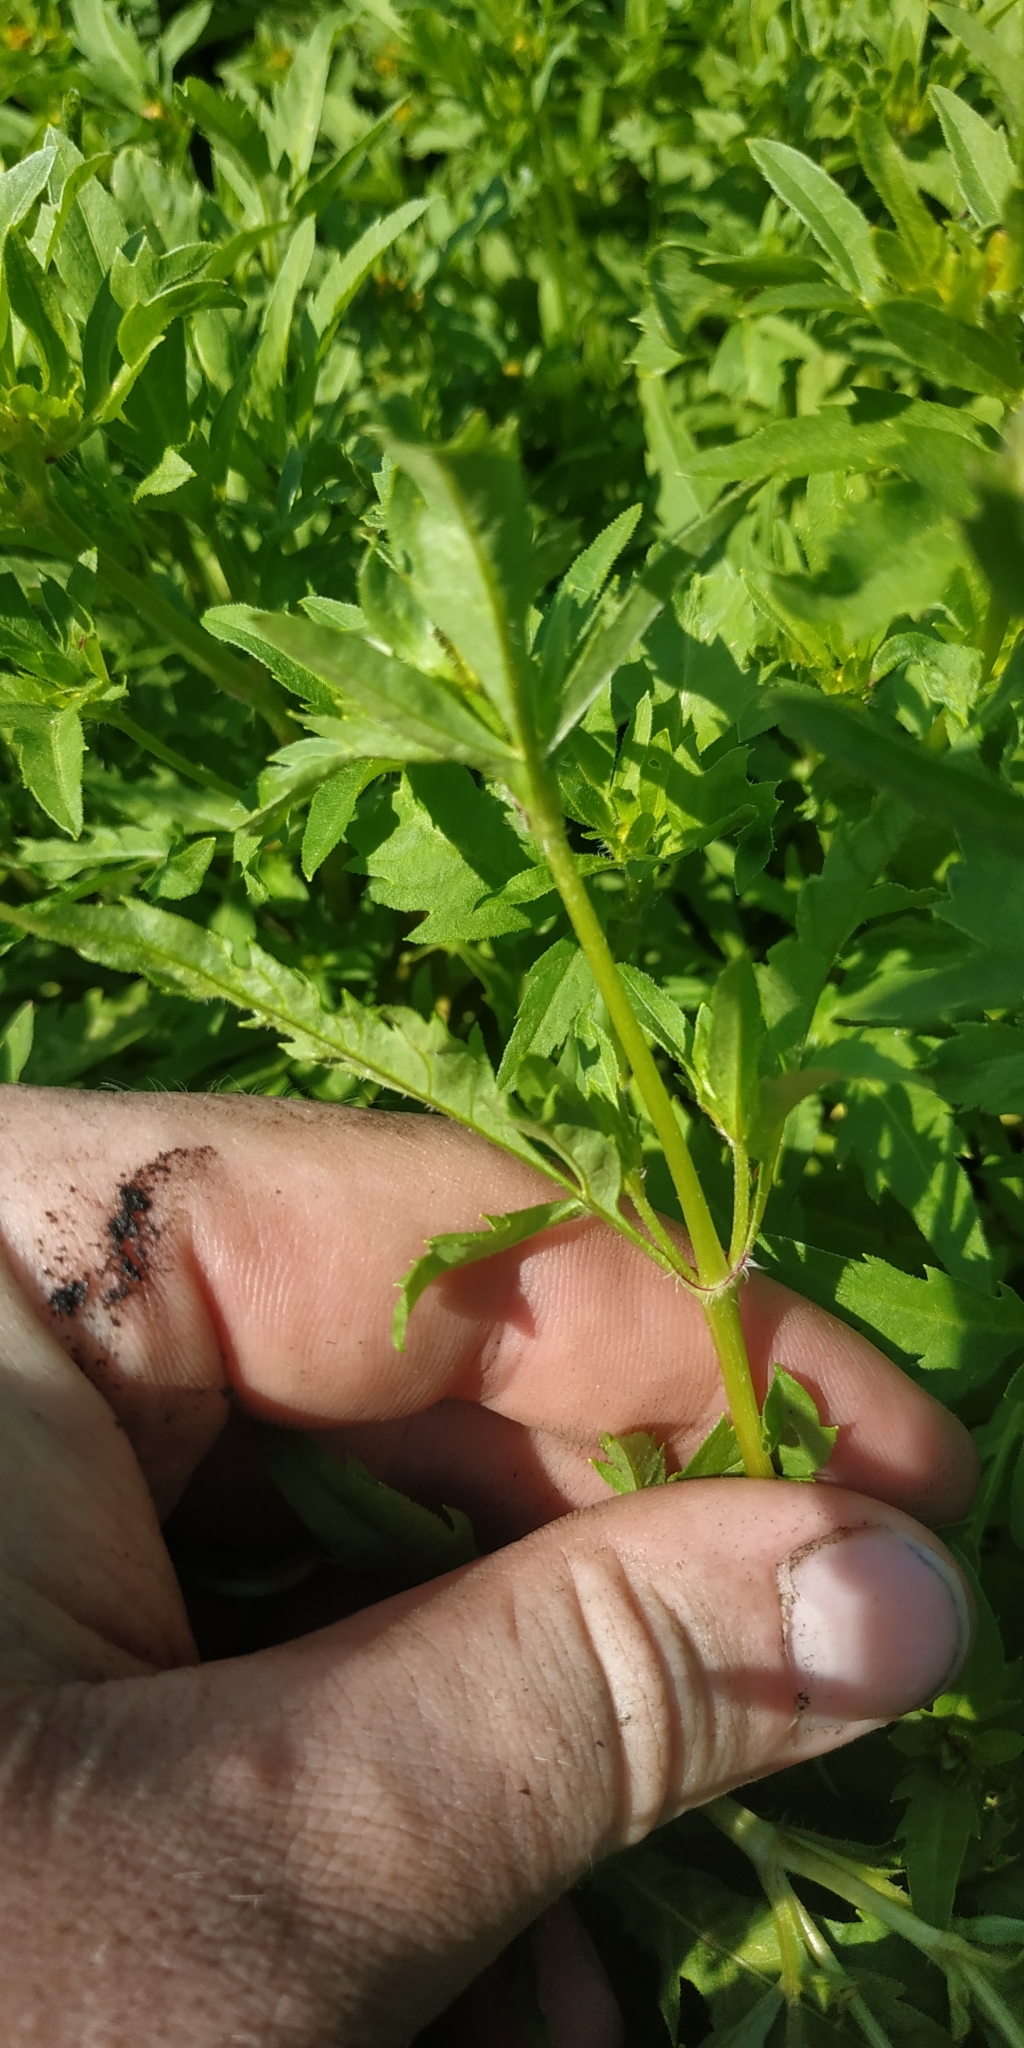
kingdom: Plantae
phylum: Tracheophyta
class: Magnoliopsida
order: Asterales
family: Asteraceae
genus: Bidens
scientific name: Bidens tripartita
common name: Trifid bur-marigold
